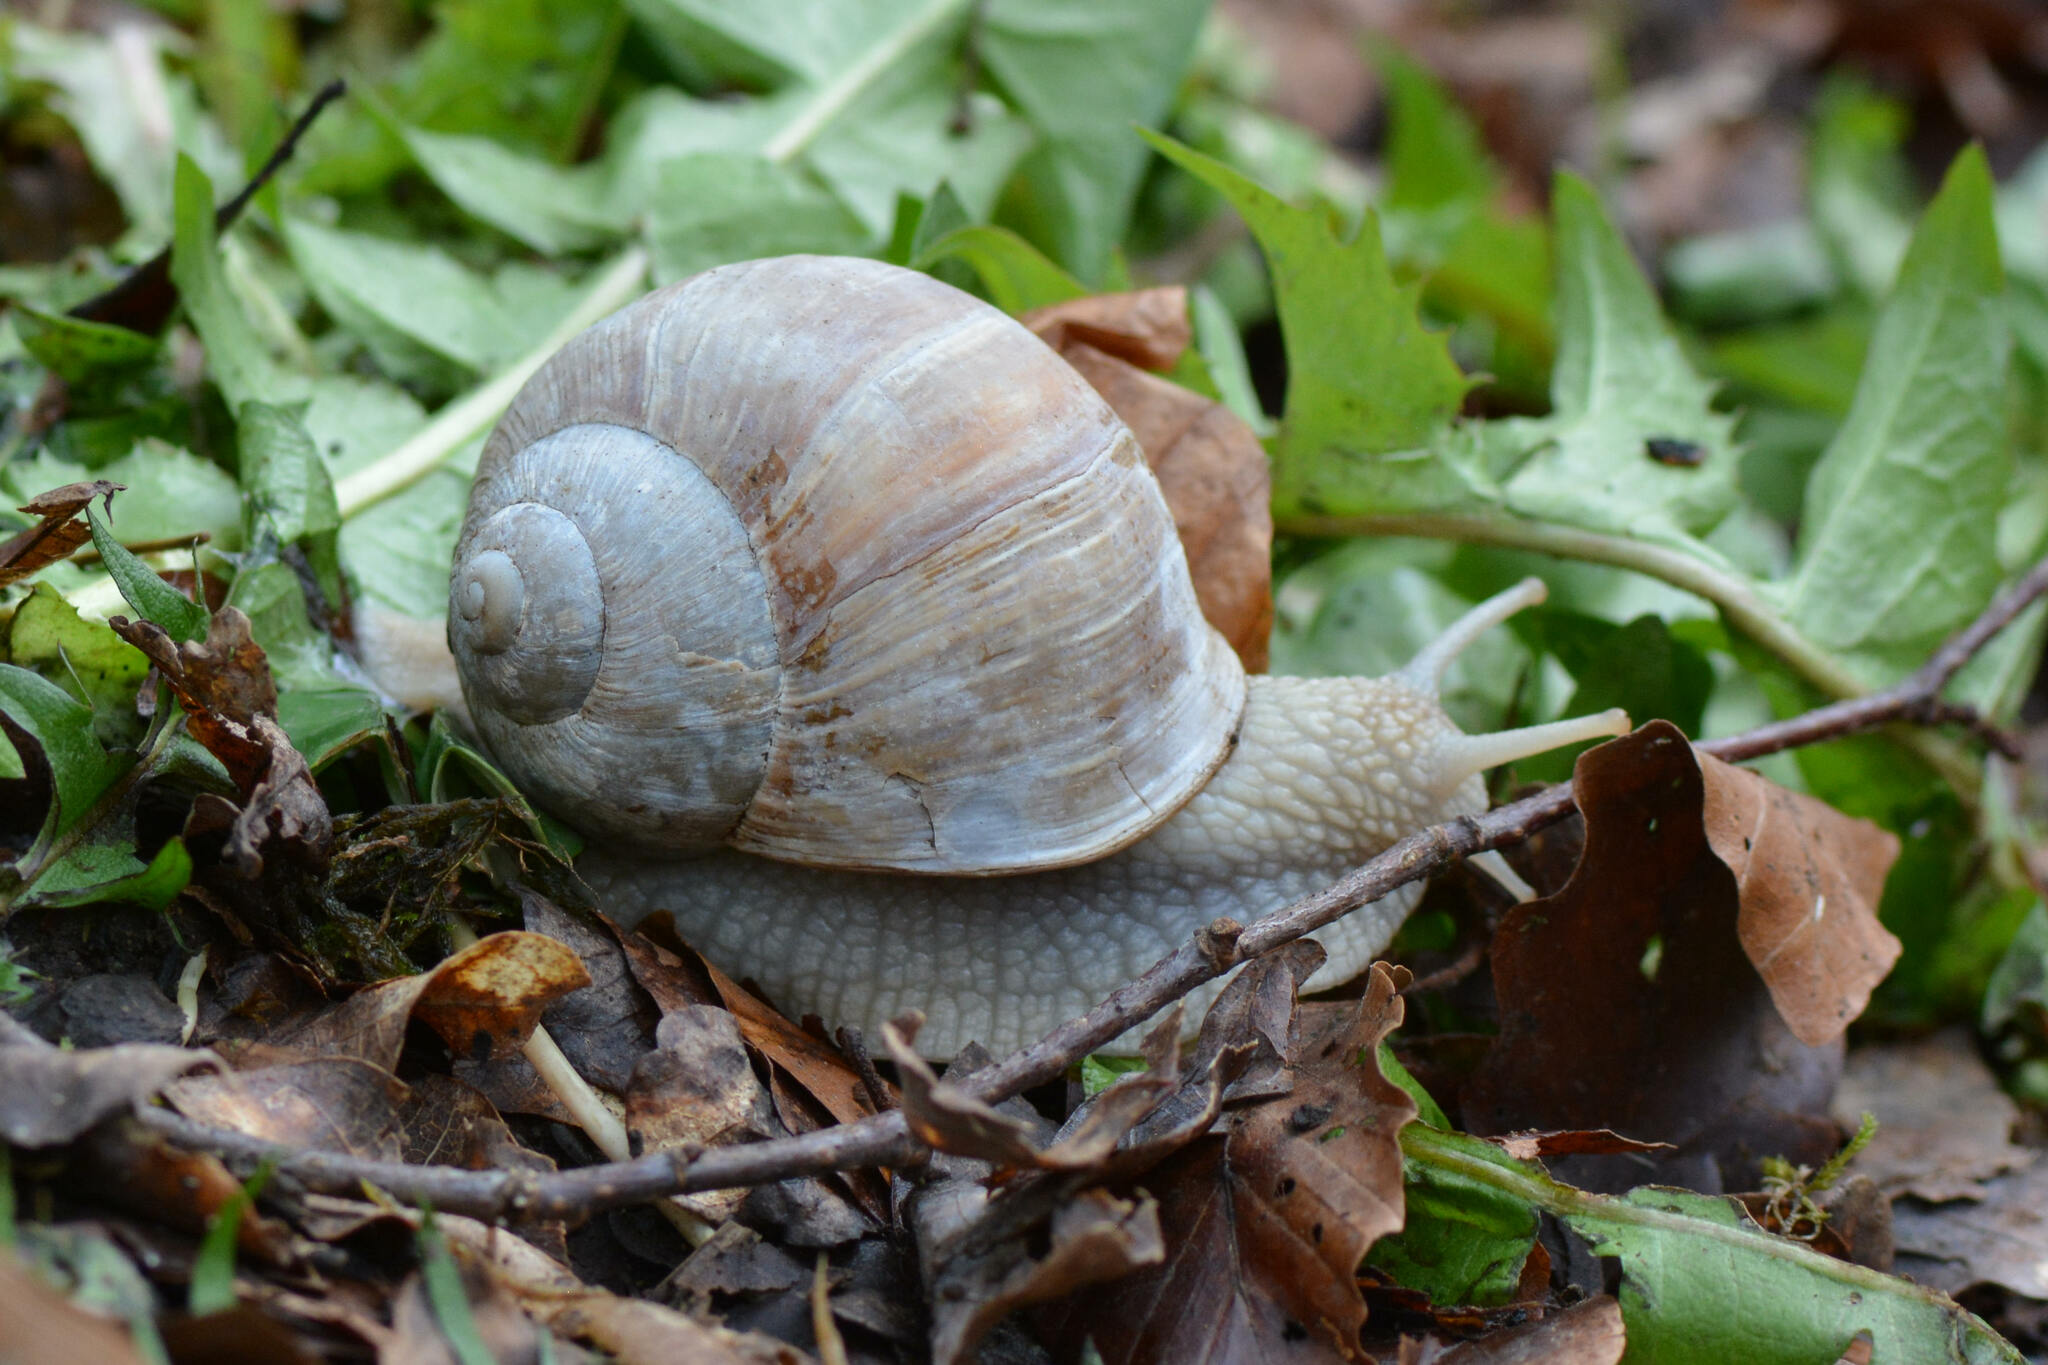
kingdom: Animalia
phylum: Mollusca
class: Gastropoda
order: Stylommatophora
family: Helicidae
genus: Helix
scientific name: Helix pomatia
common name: Roman snail
